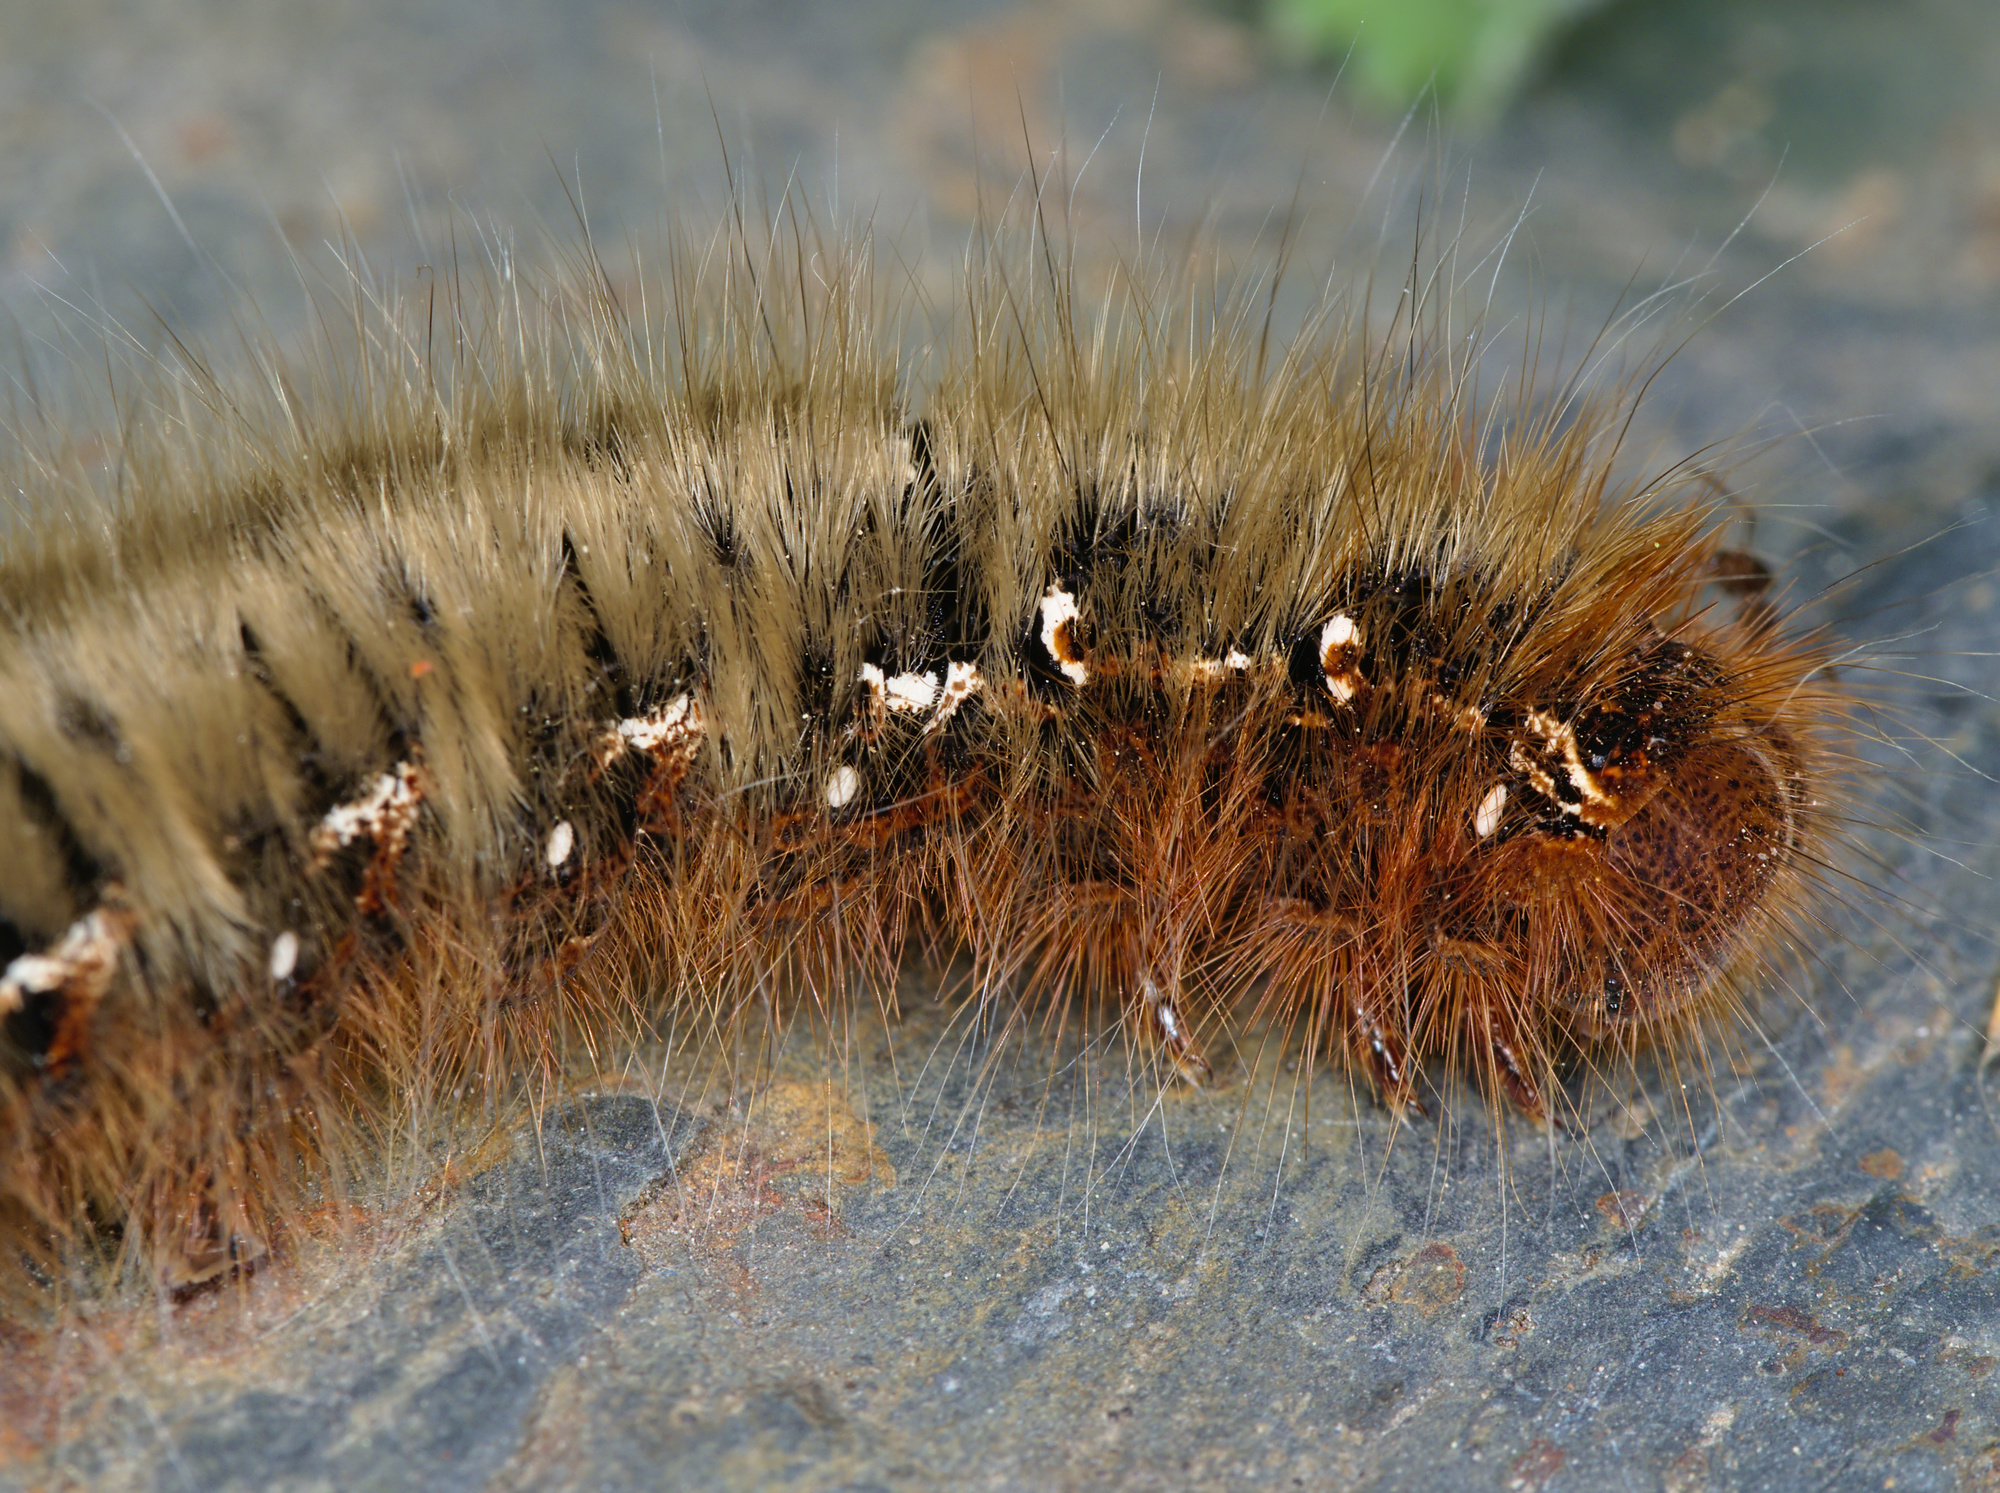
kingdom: Animalia
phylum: Arthropoda
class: Insecta
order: Lepidoptera
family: Lasiocampidae
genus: Lasiocampa
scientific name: Lasiocampa quercus
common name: Oak eggar
